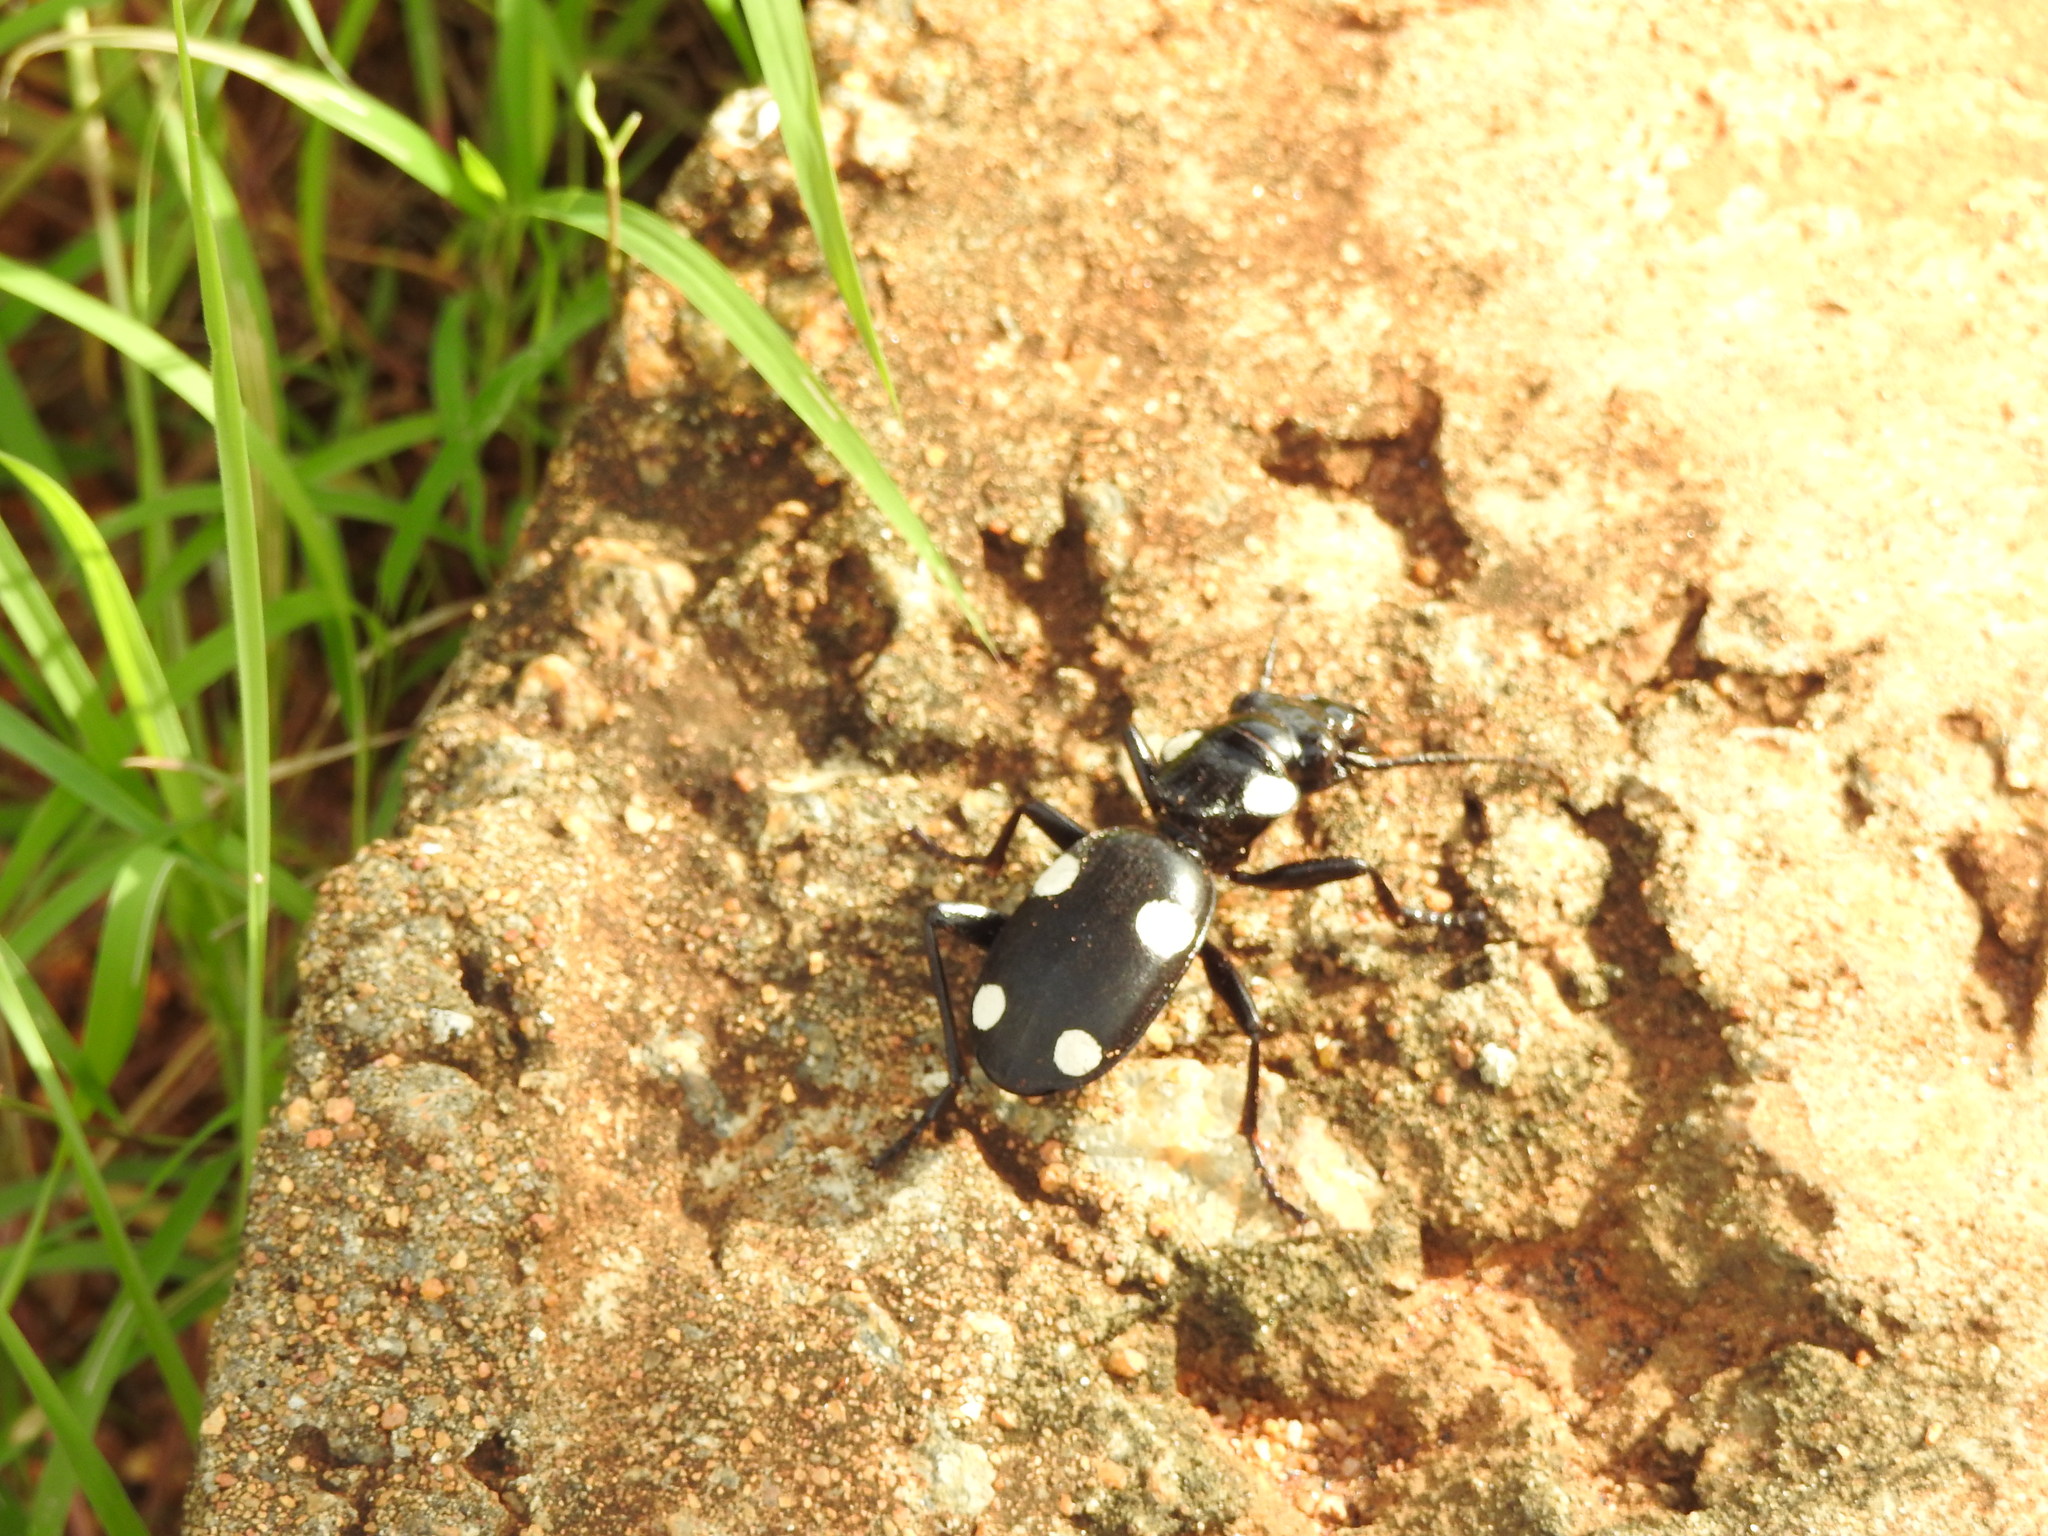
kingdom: Animalia
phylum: Arthropoda
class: Insecta
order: Coleoptera
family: Carabidae
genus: Anthia
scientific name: Anthia sexguttata
